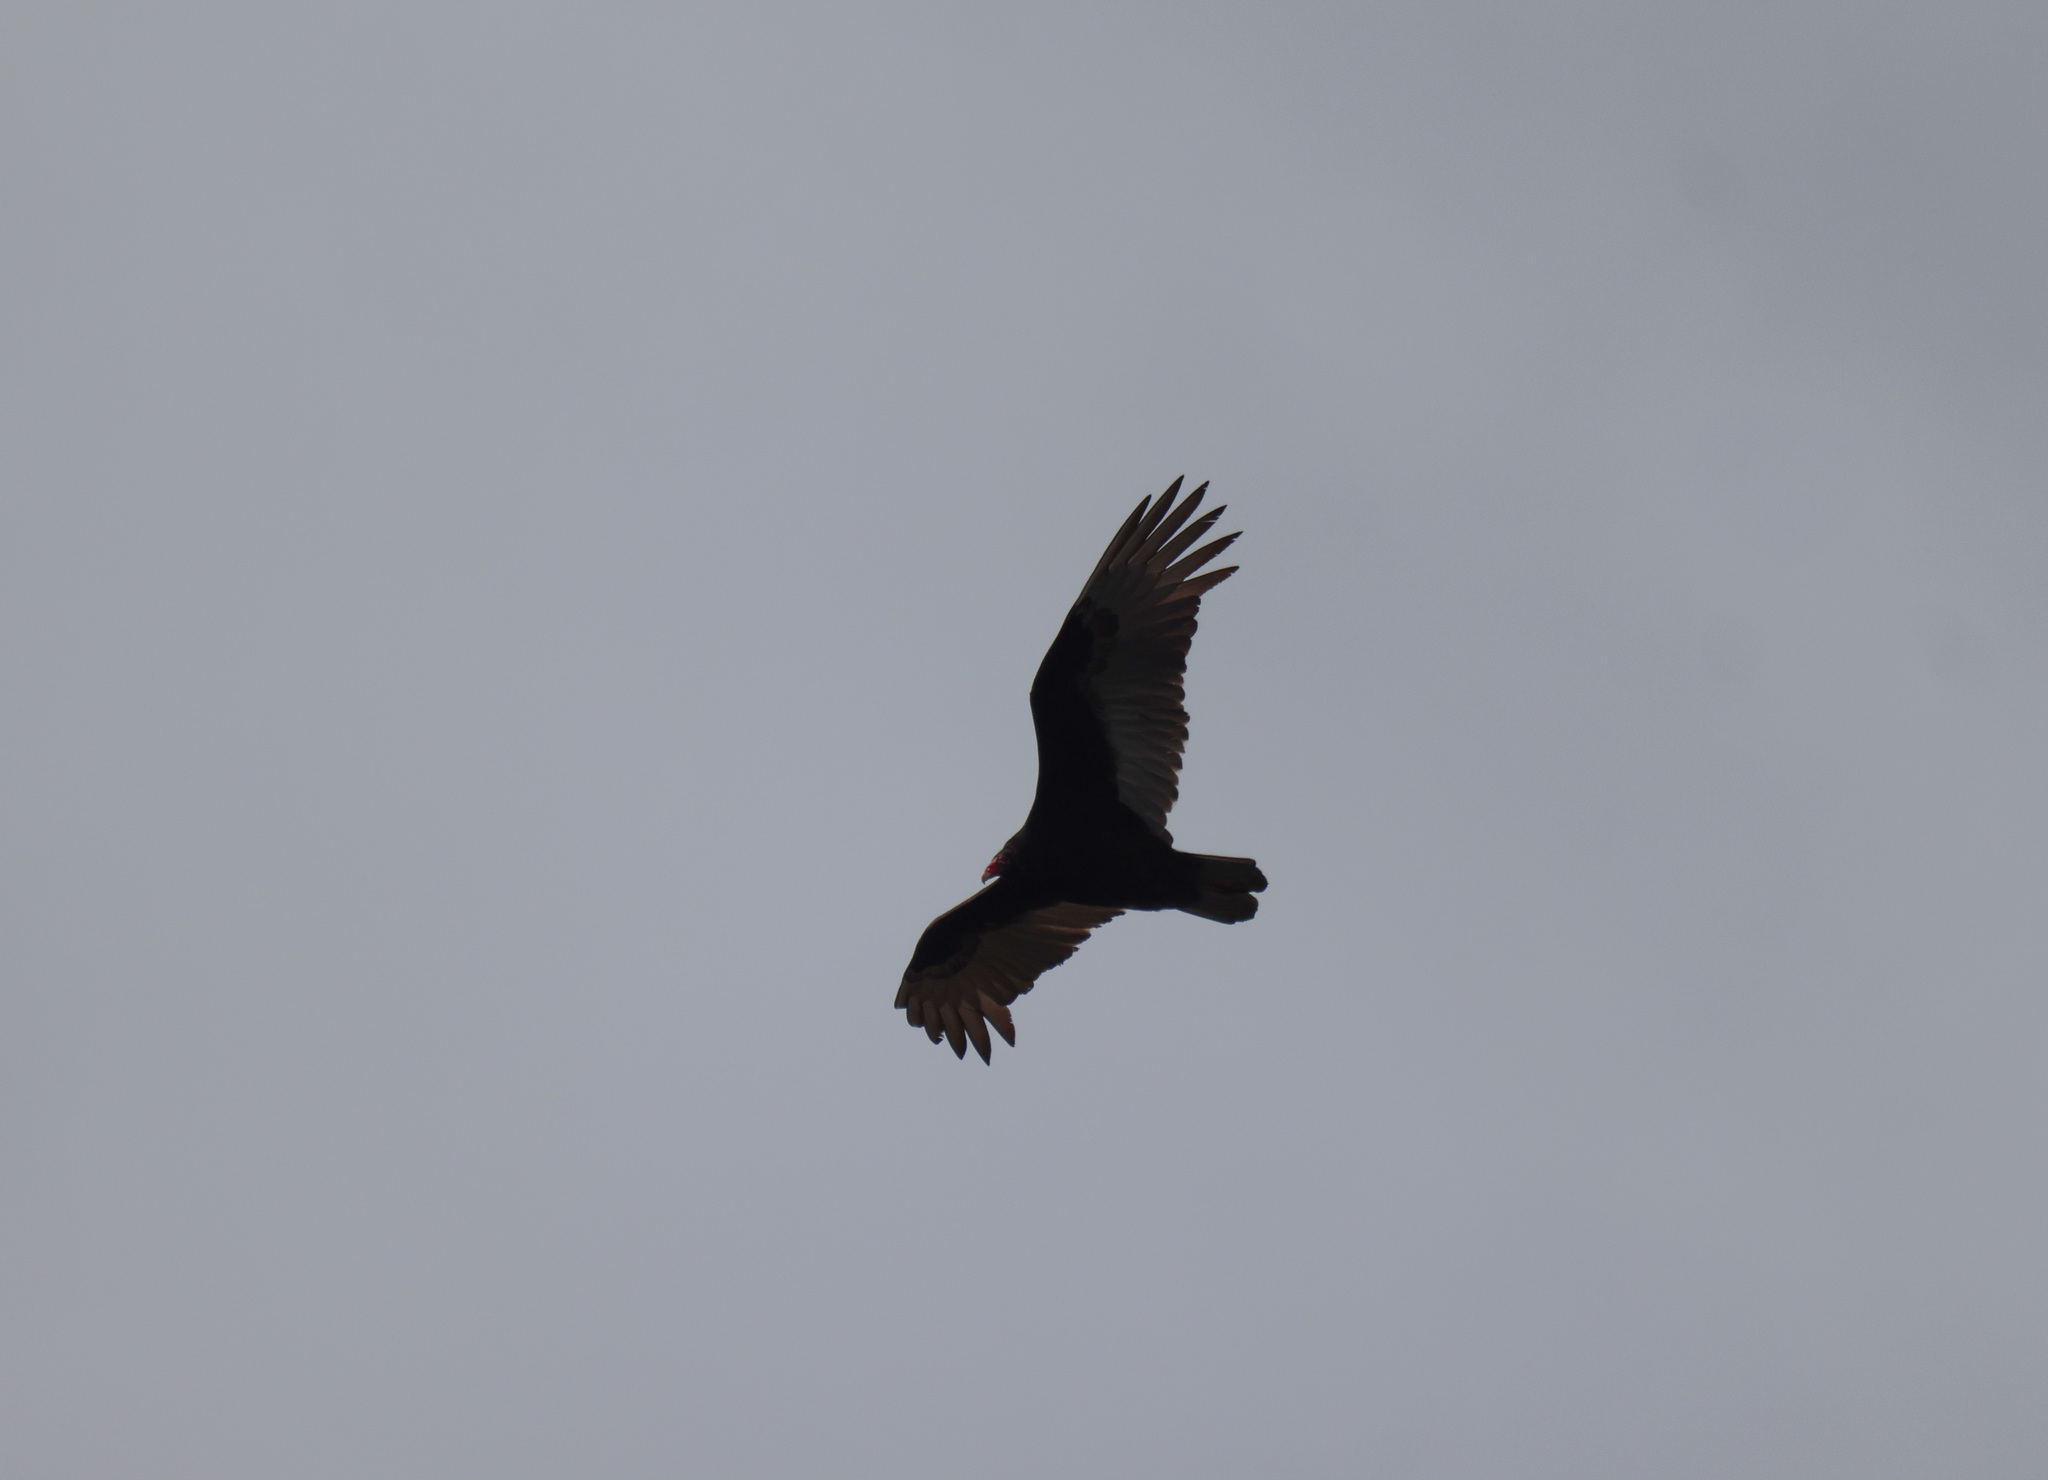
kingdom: Animalia
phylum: Chordata
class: Aves
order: Accipitriformes
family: Cathartidae
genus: Cathartes
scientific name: Cathartes aura
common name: Turkey vulture
